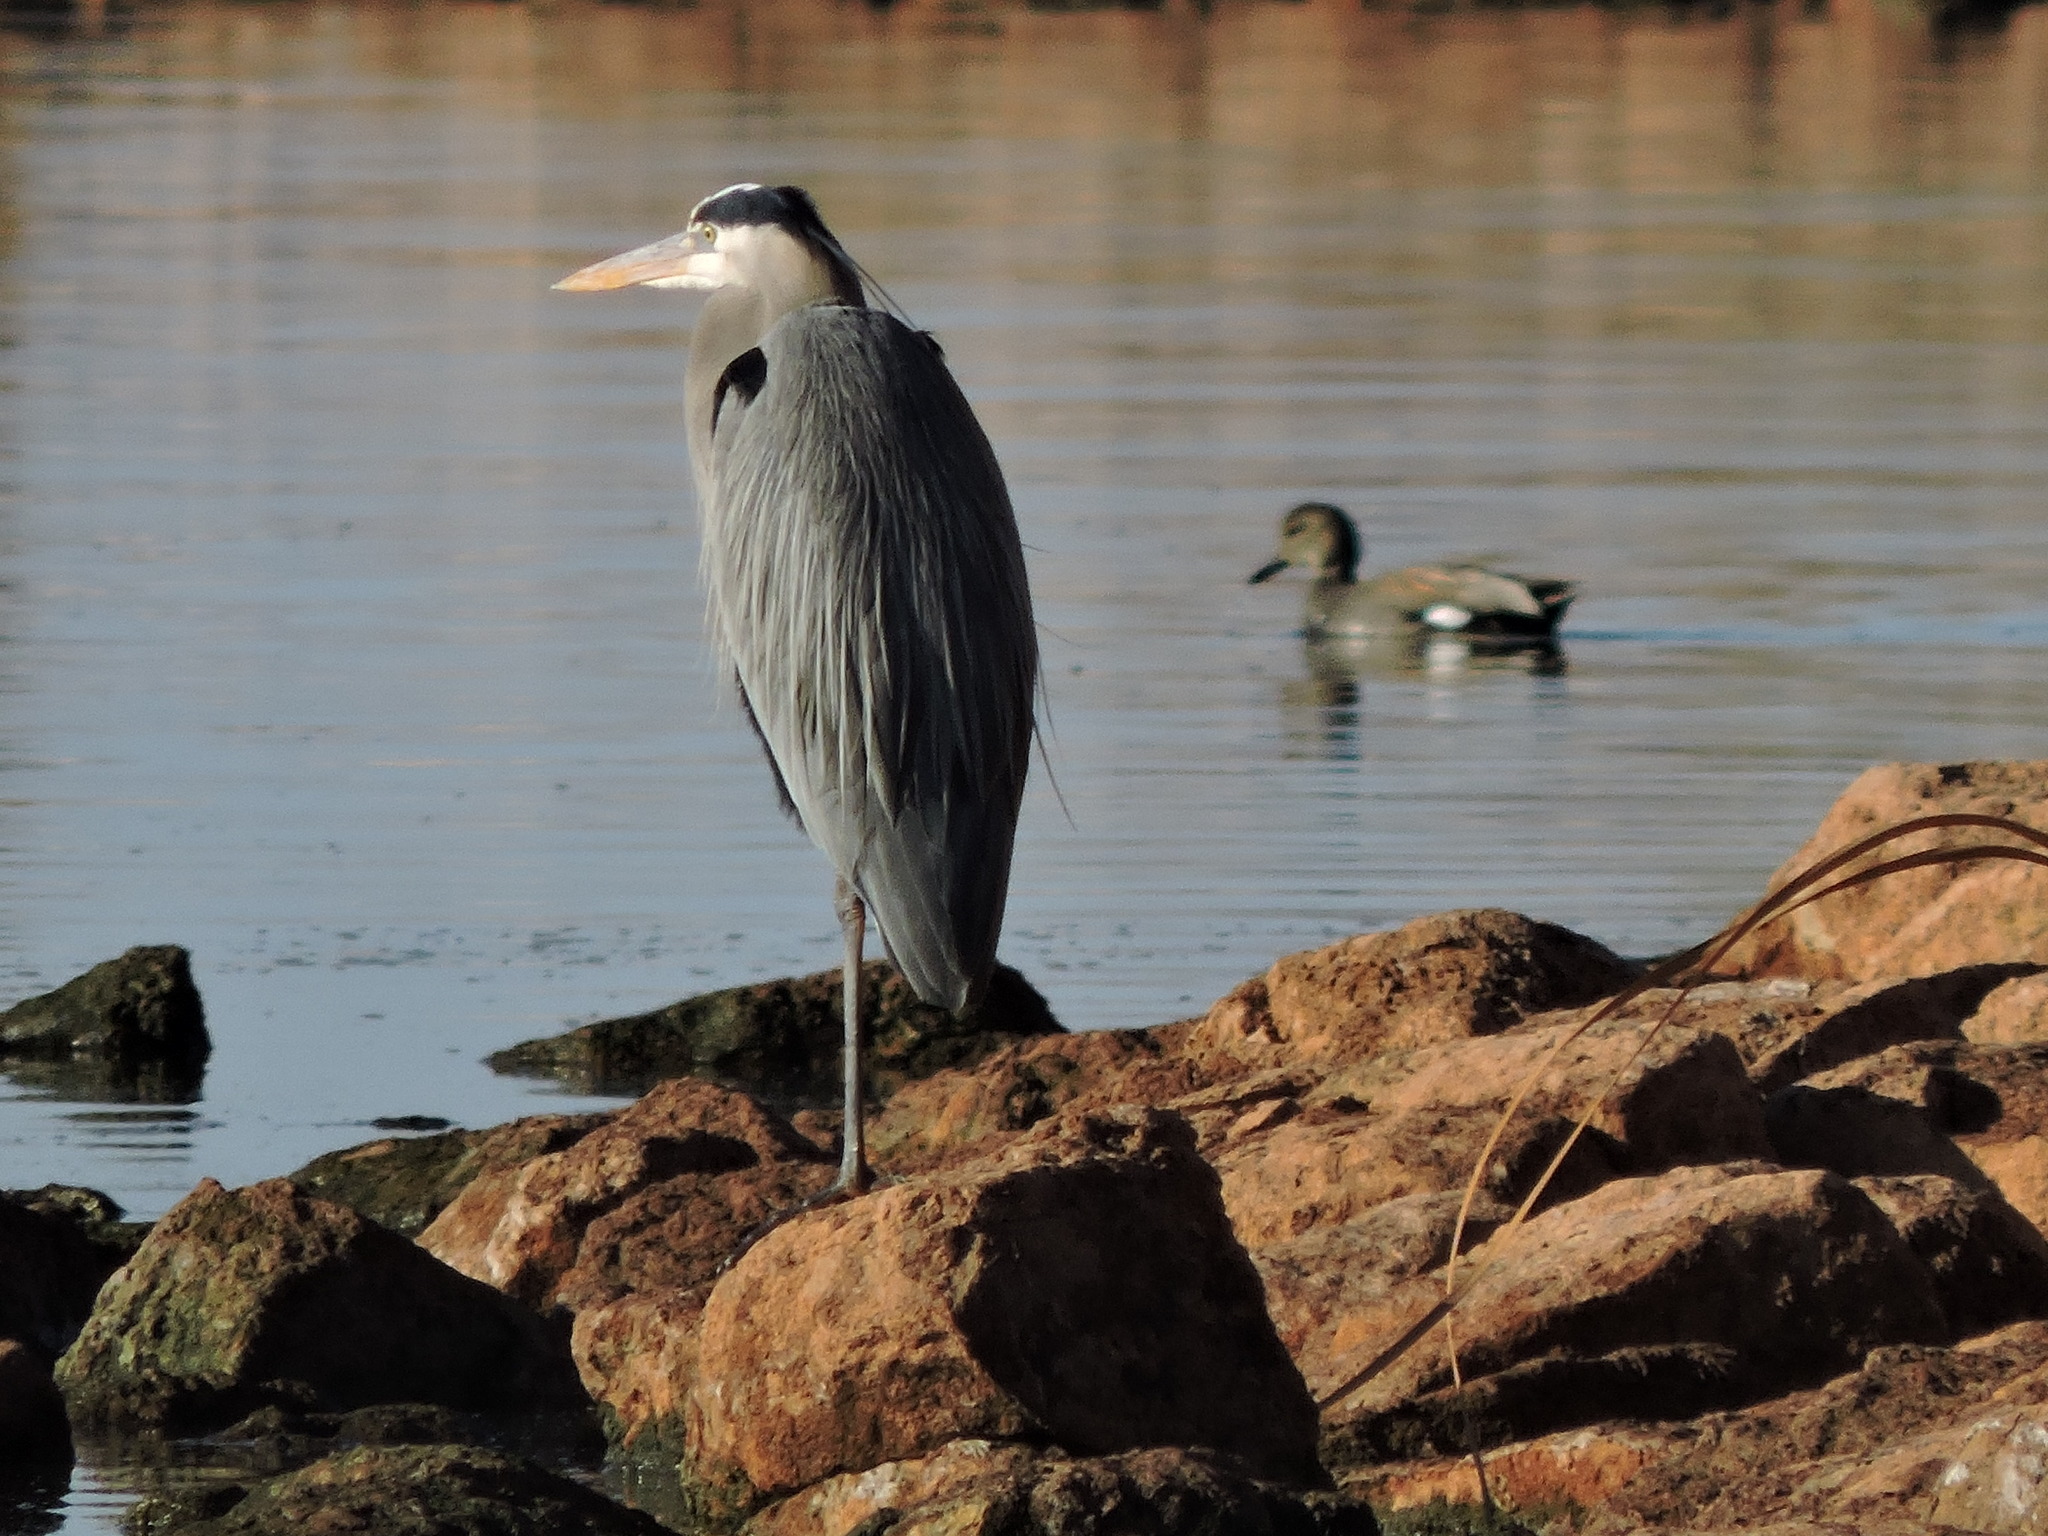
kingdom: Animalia
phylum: Chordata
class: Aves
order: Pelecaniformes
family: Ardeidae
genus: Ardea
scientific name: Ardea herodias
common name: Great blue heron
